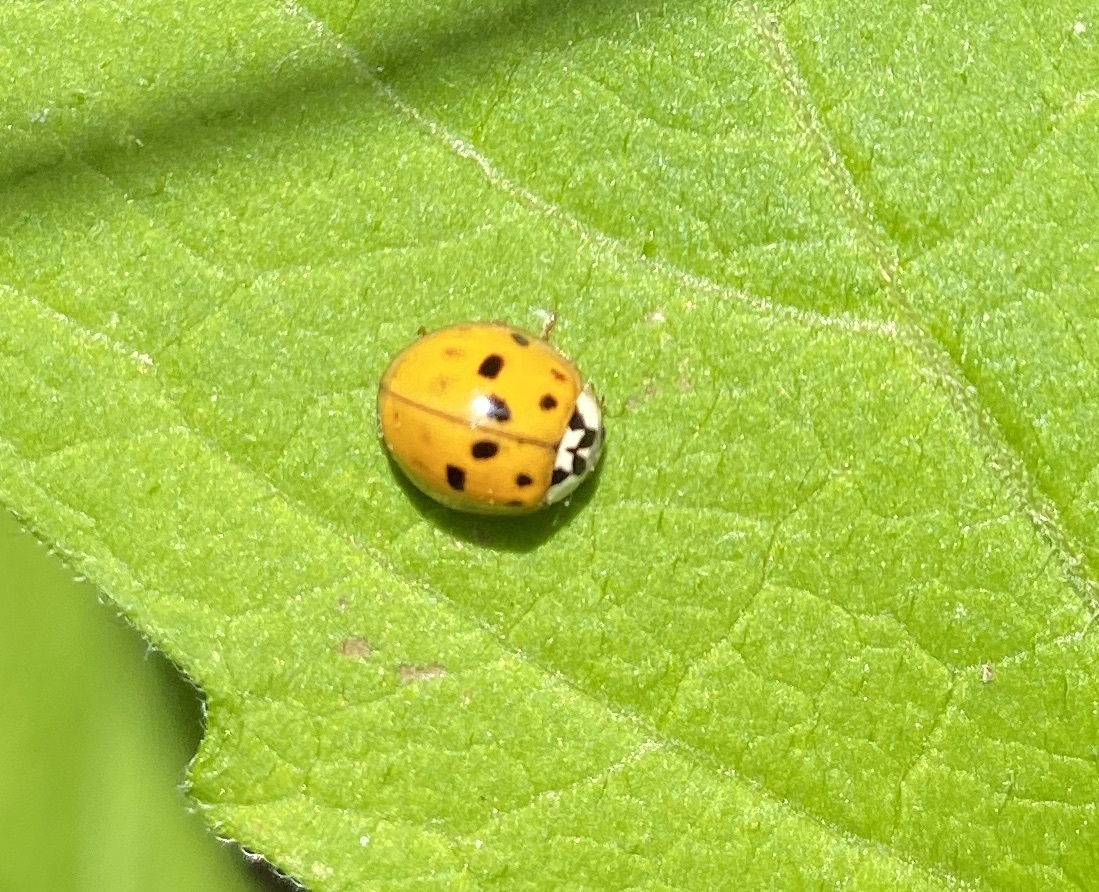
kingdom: Animalia
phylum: Arthropoda
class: Insecta
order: Coleoptera
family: Coccinellidae
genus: Harmonia
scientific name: Harmonia axyridis
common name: Harlequin ladybird
